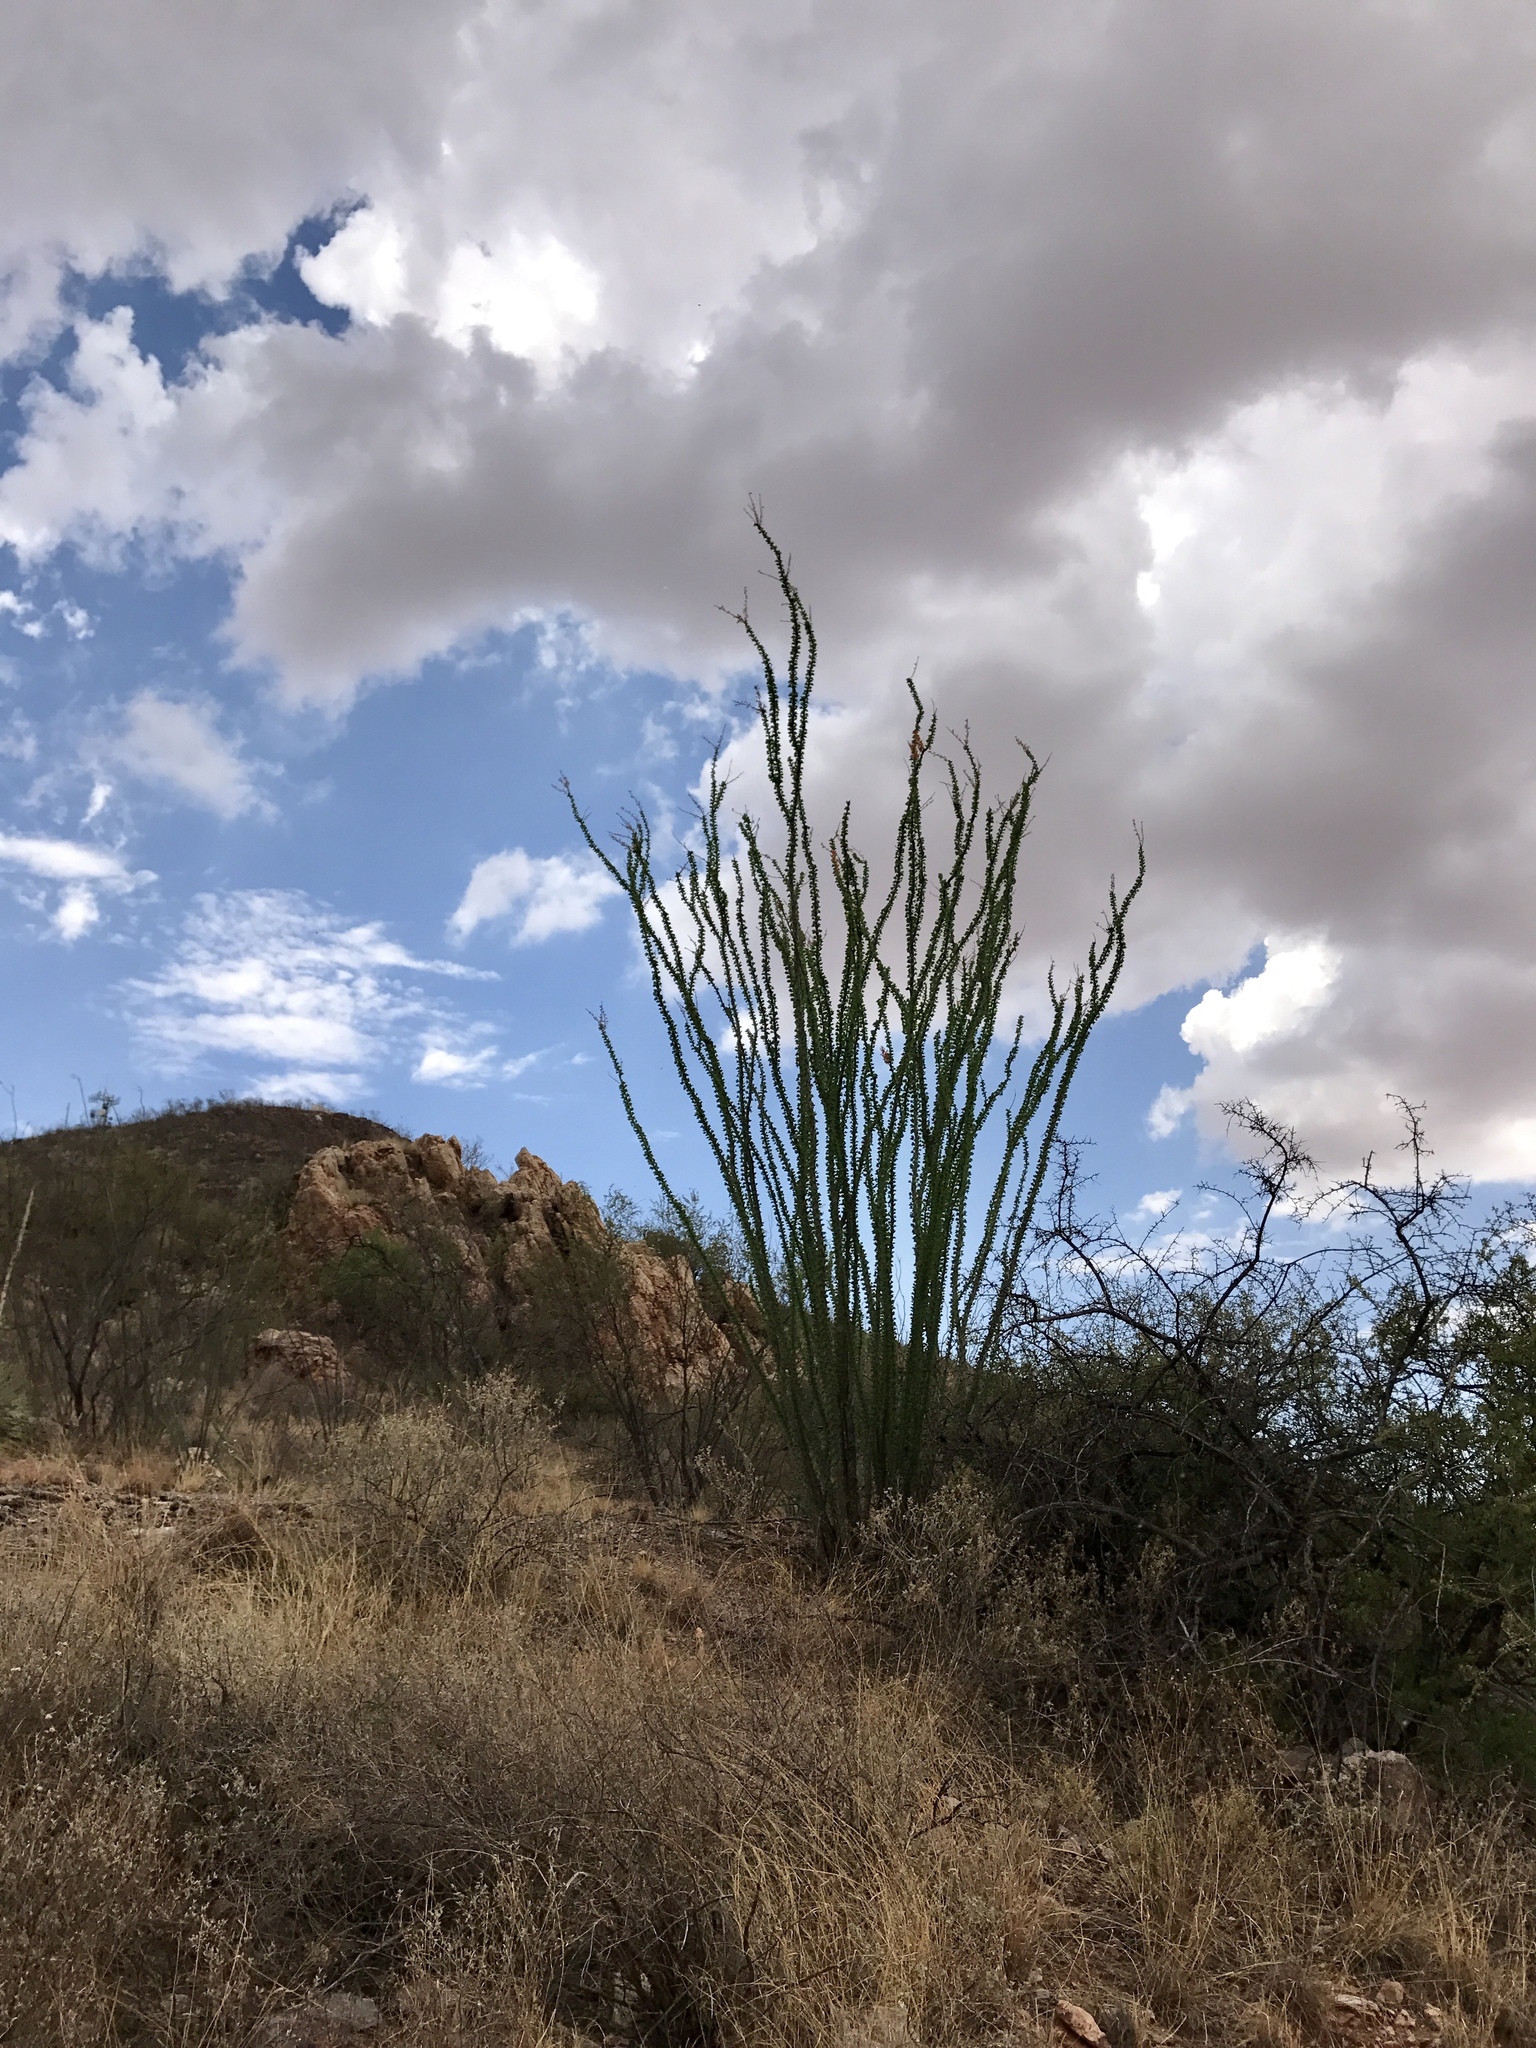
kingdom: Plantae
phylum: Tracheophyta
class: Magnoliopsida
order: Ericales
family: Fouquieriaceae
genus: Fouquieria
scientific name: Fouquieria splendens
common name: Vine-cactus
